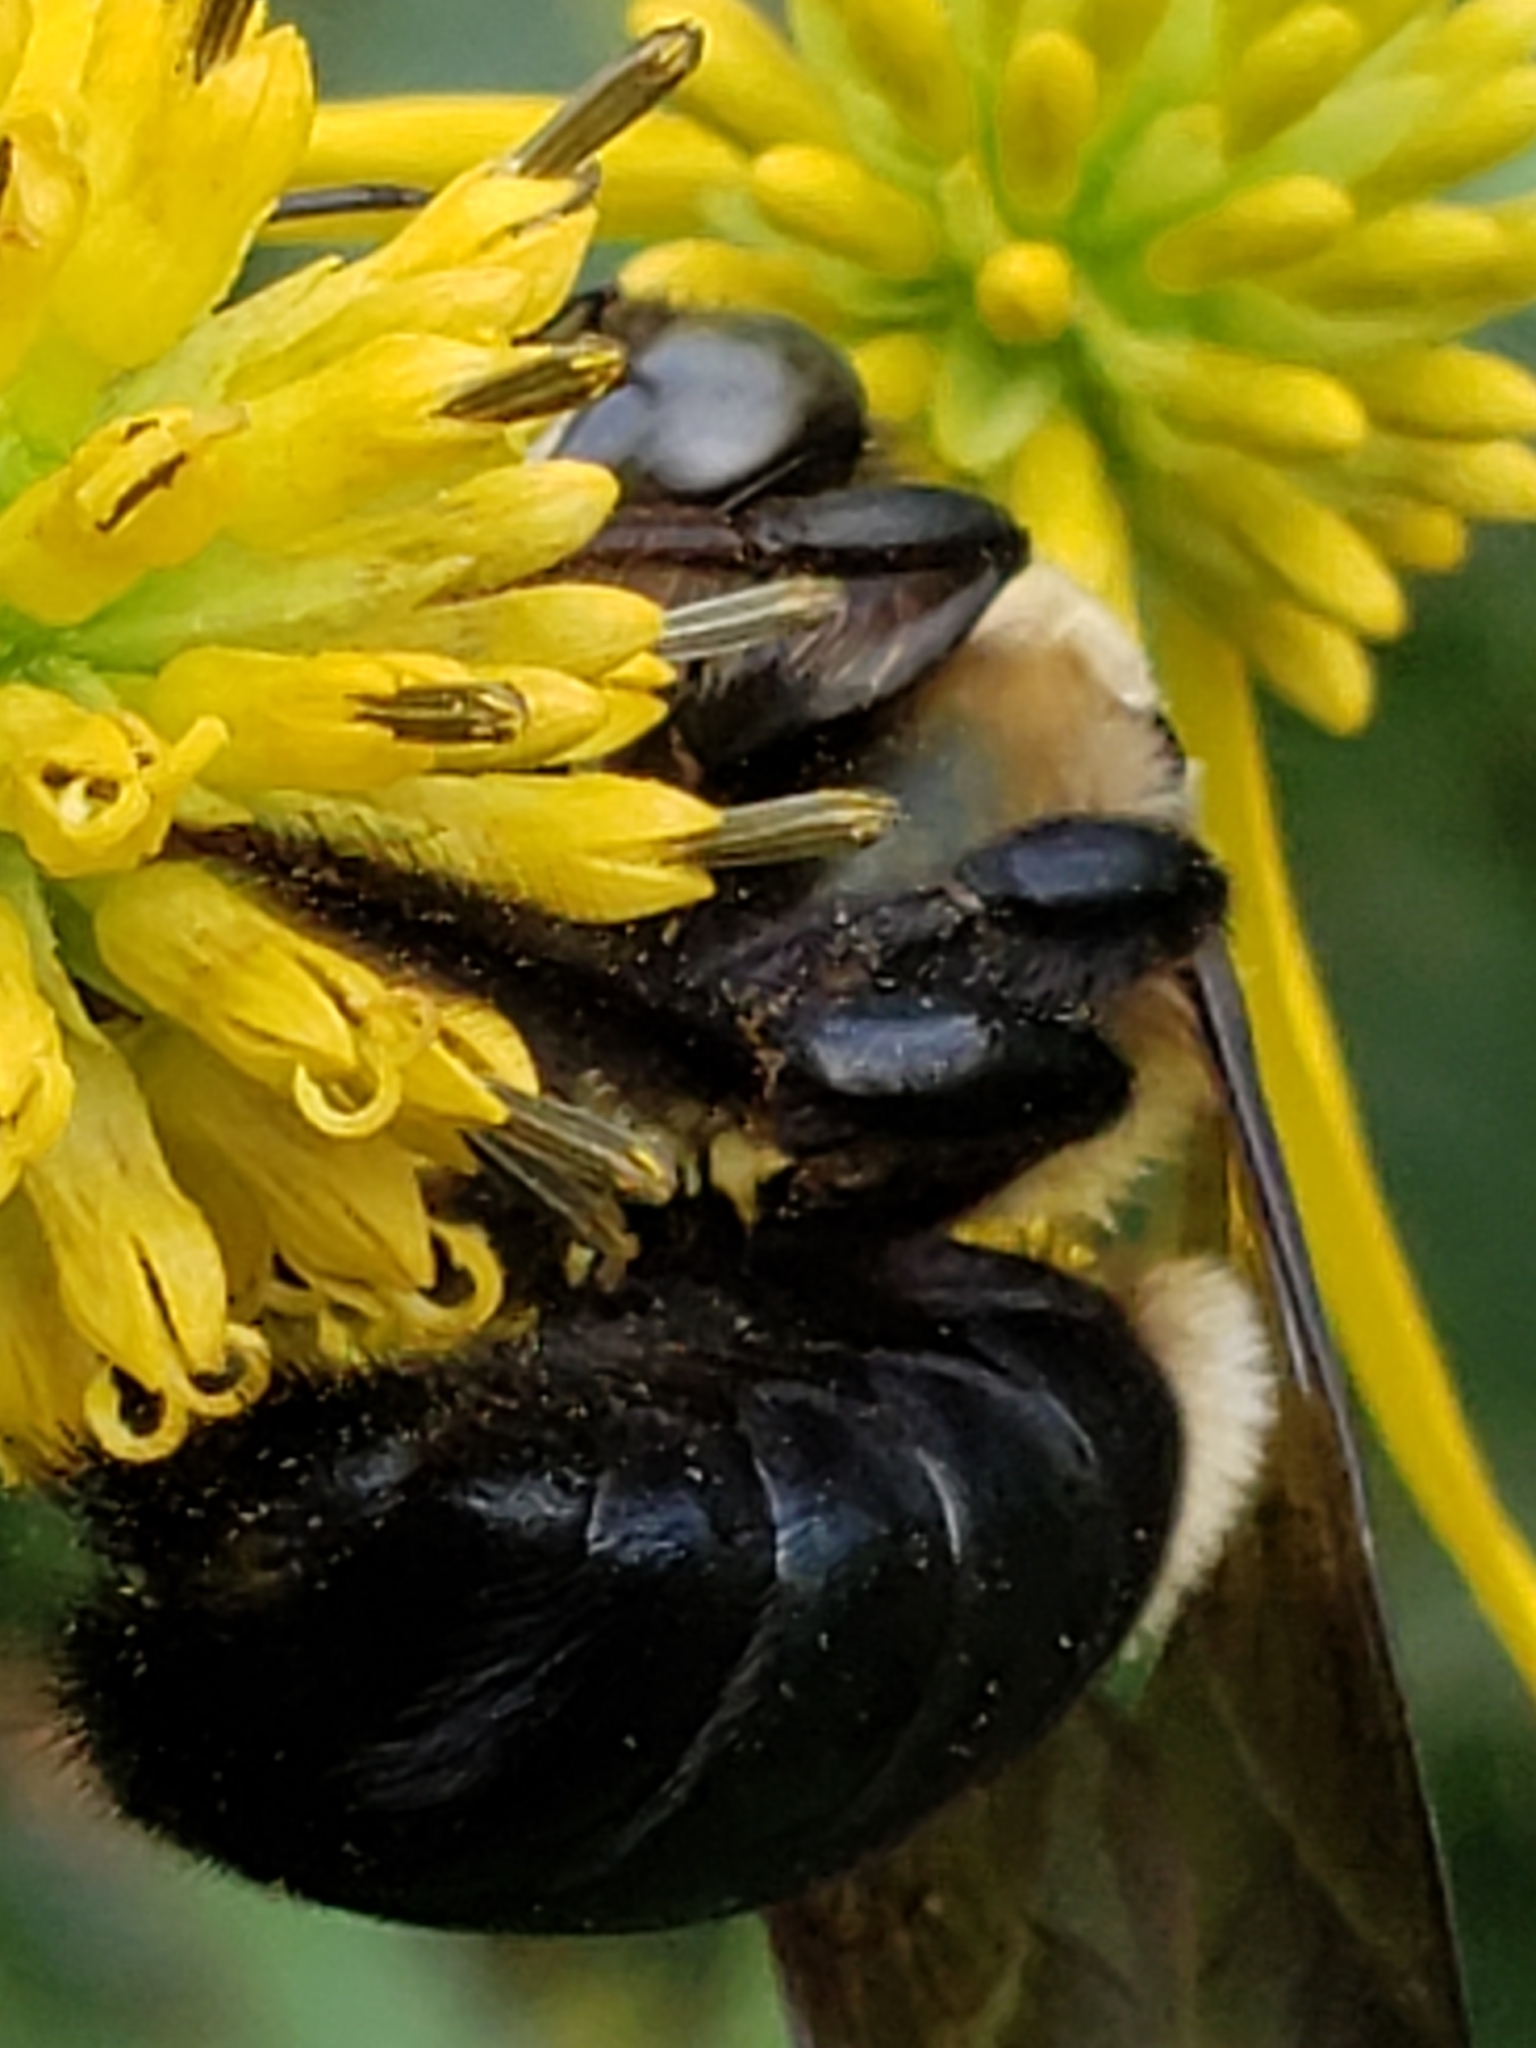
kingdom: Animalia
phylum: Arthropoda
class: Insecta
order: Hymenoptera
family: Apidae
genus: Xylocopa
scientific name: Xylocopa virginica
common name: Carpenter bee
